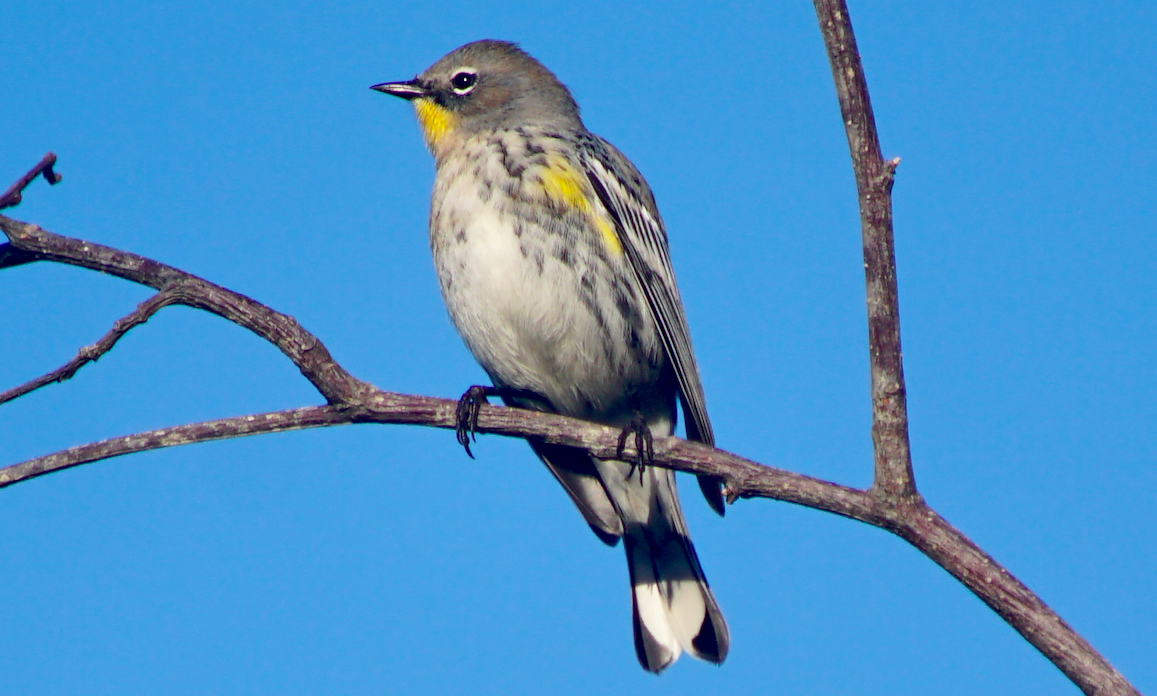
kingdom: Animalia
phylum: Chordata
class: Aves
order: Passeriformes
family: Parulidae
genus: Setophaga
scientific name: Setophaga coronata
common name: Myrtle warbler
